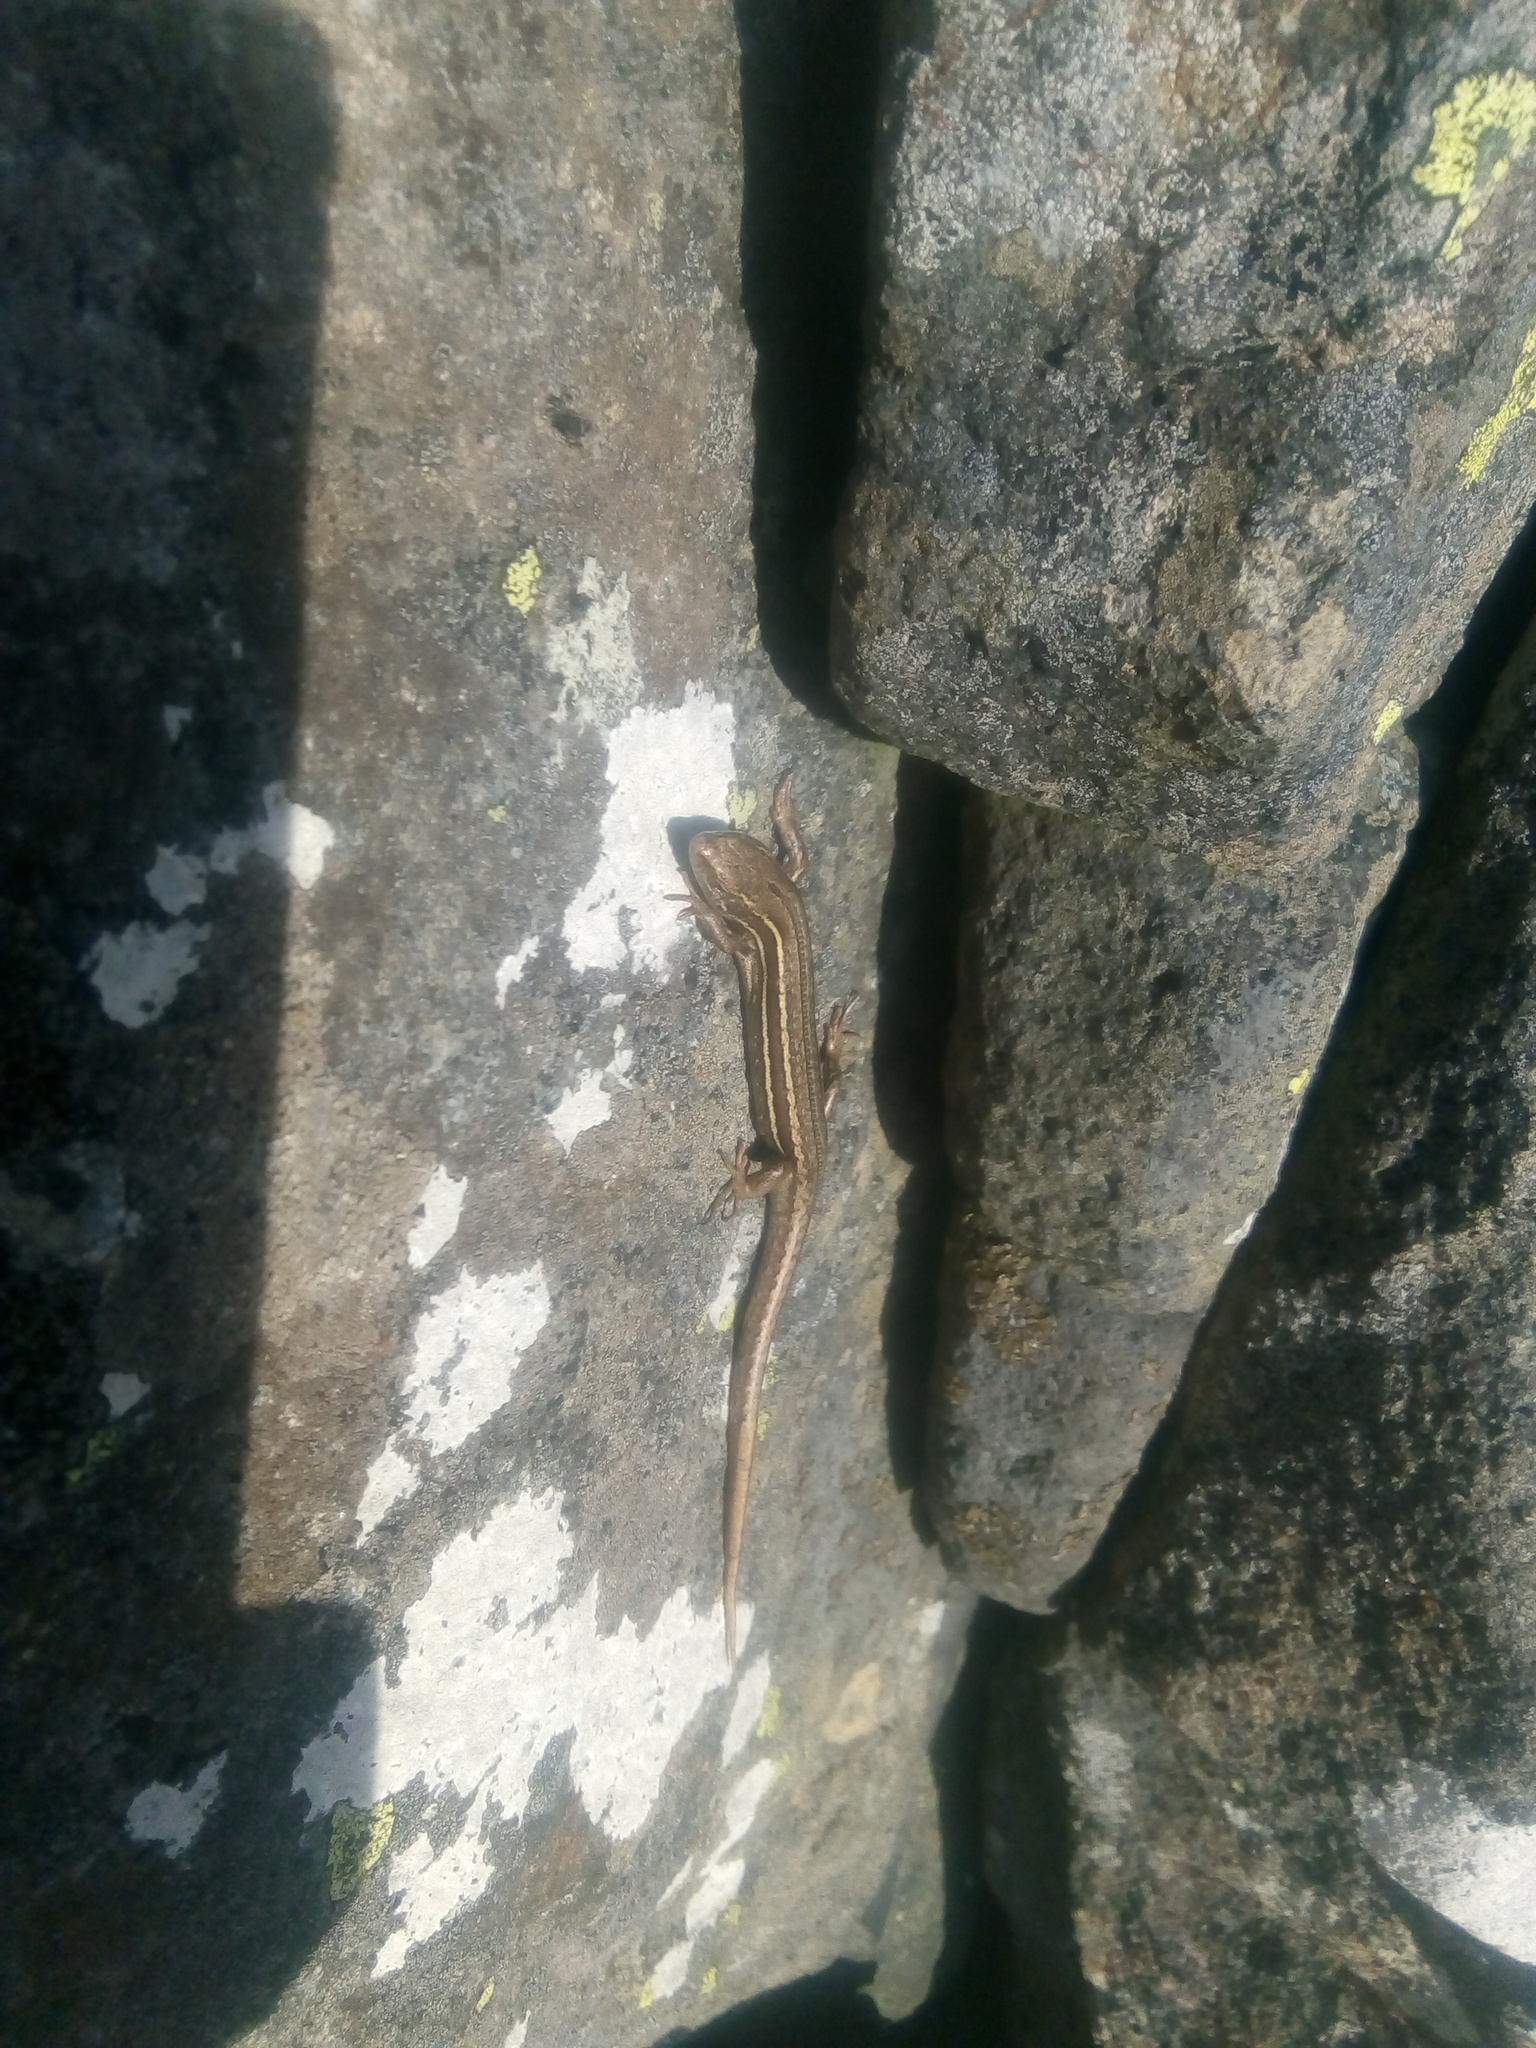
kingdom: Animalia
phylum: Chordata
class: Squamata
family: Scincidae
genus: Oligosoma
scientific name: Oligosoma polychroma
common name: Common new zealand skink
